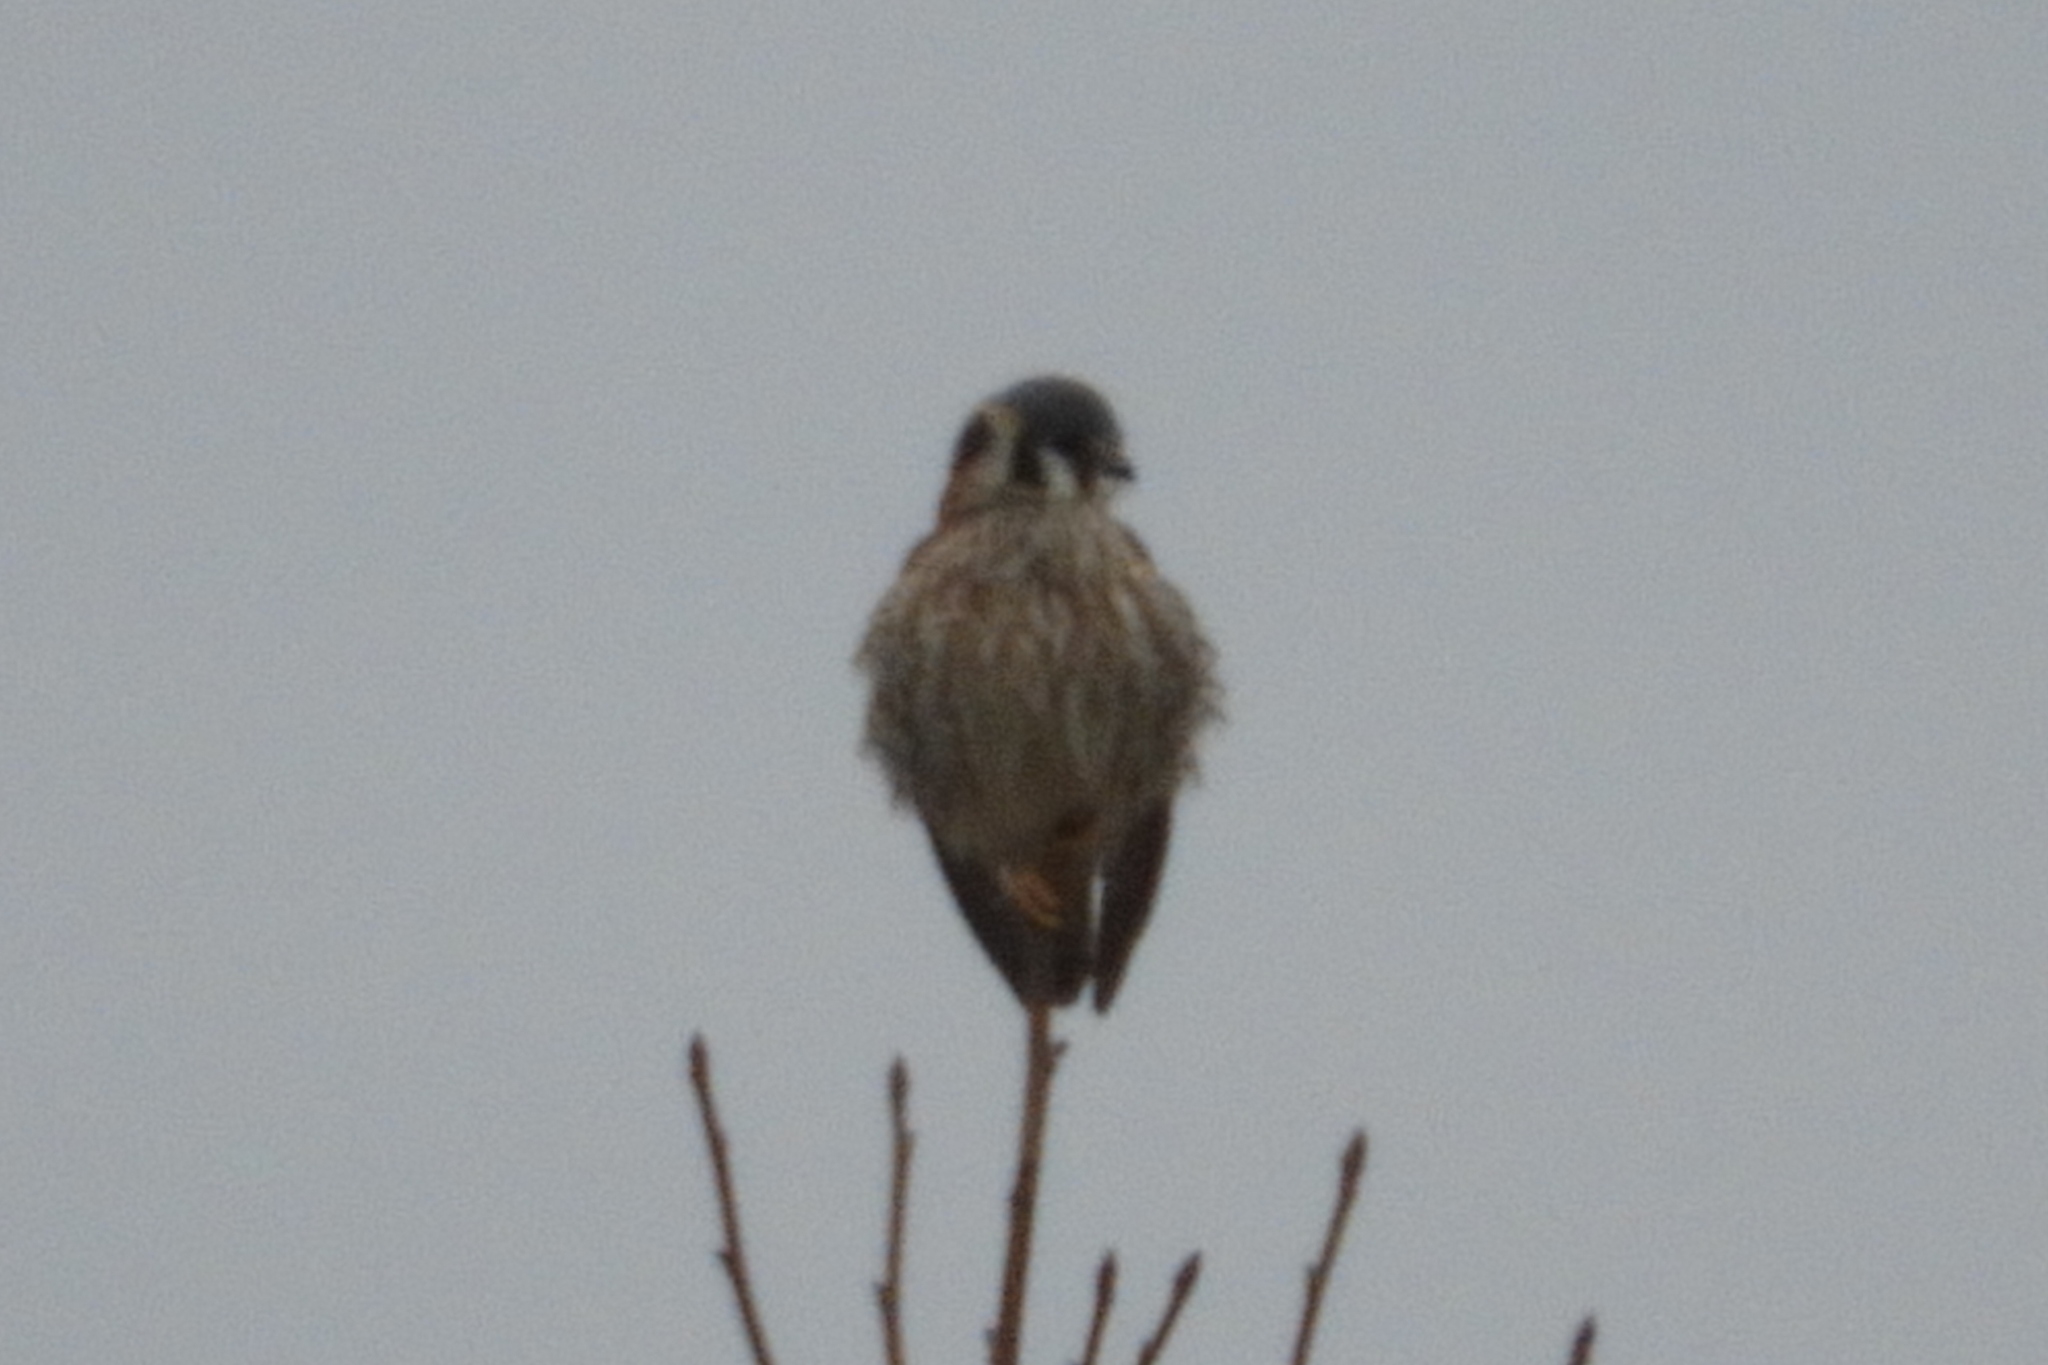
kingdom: Animalia
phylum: Chordata
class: Aves
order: Falconiformes
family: Falconidae
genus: Falco
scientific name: Falco sparverius
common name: American kestrel
